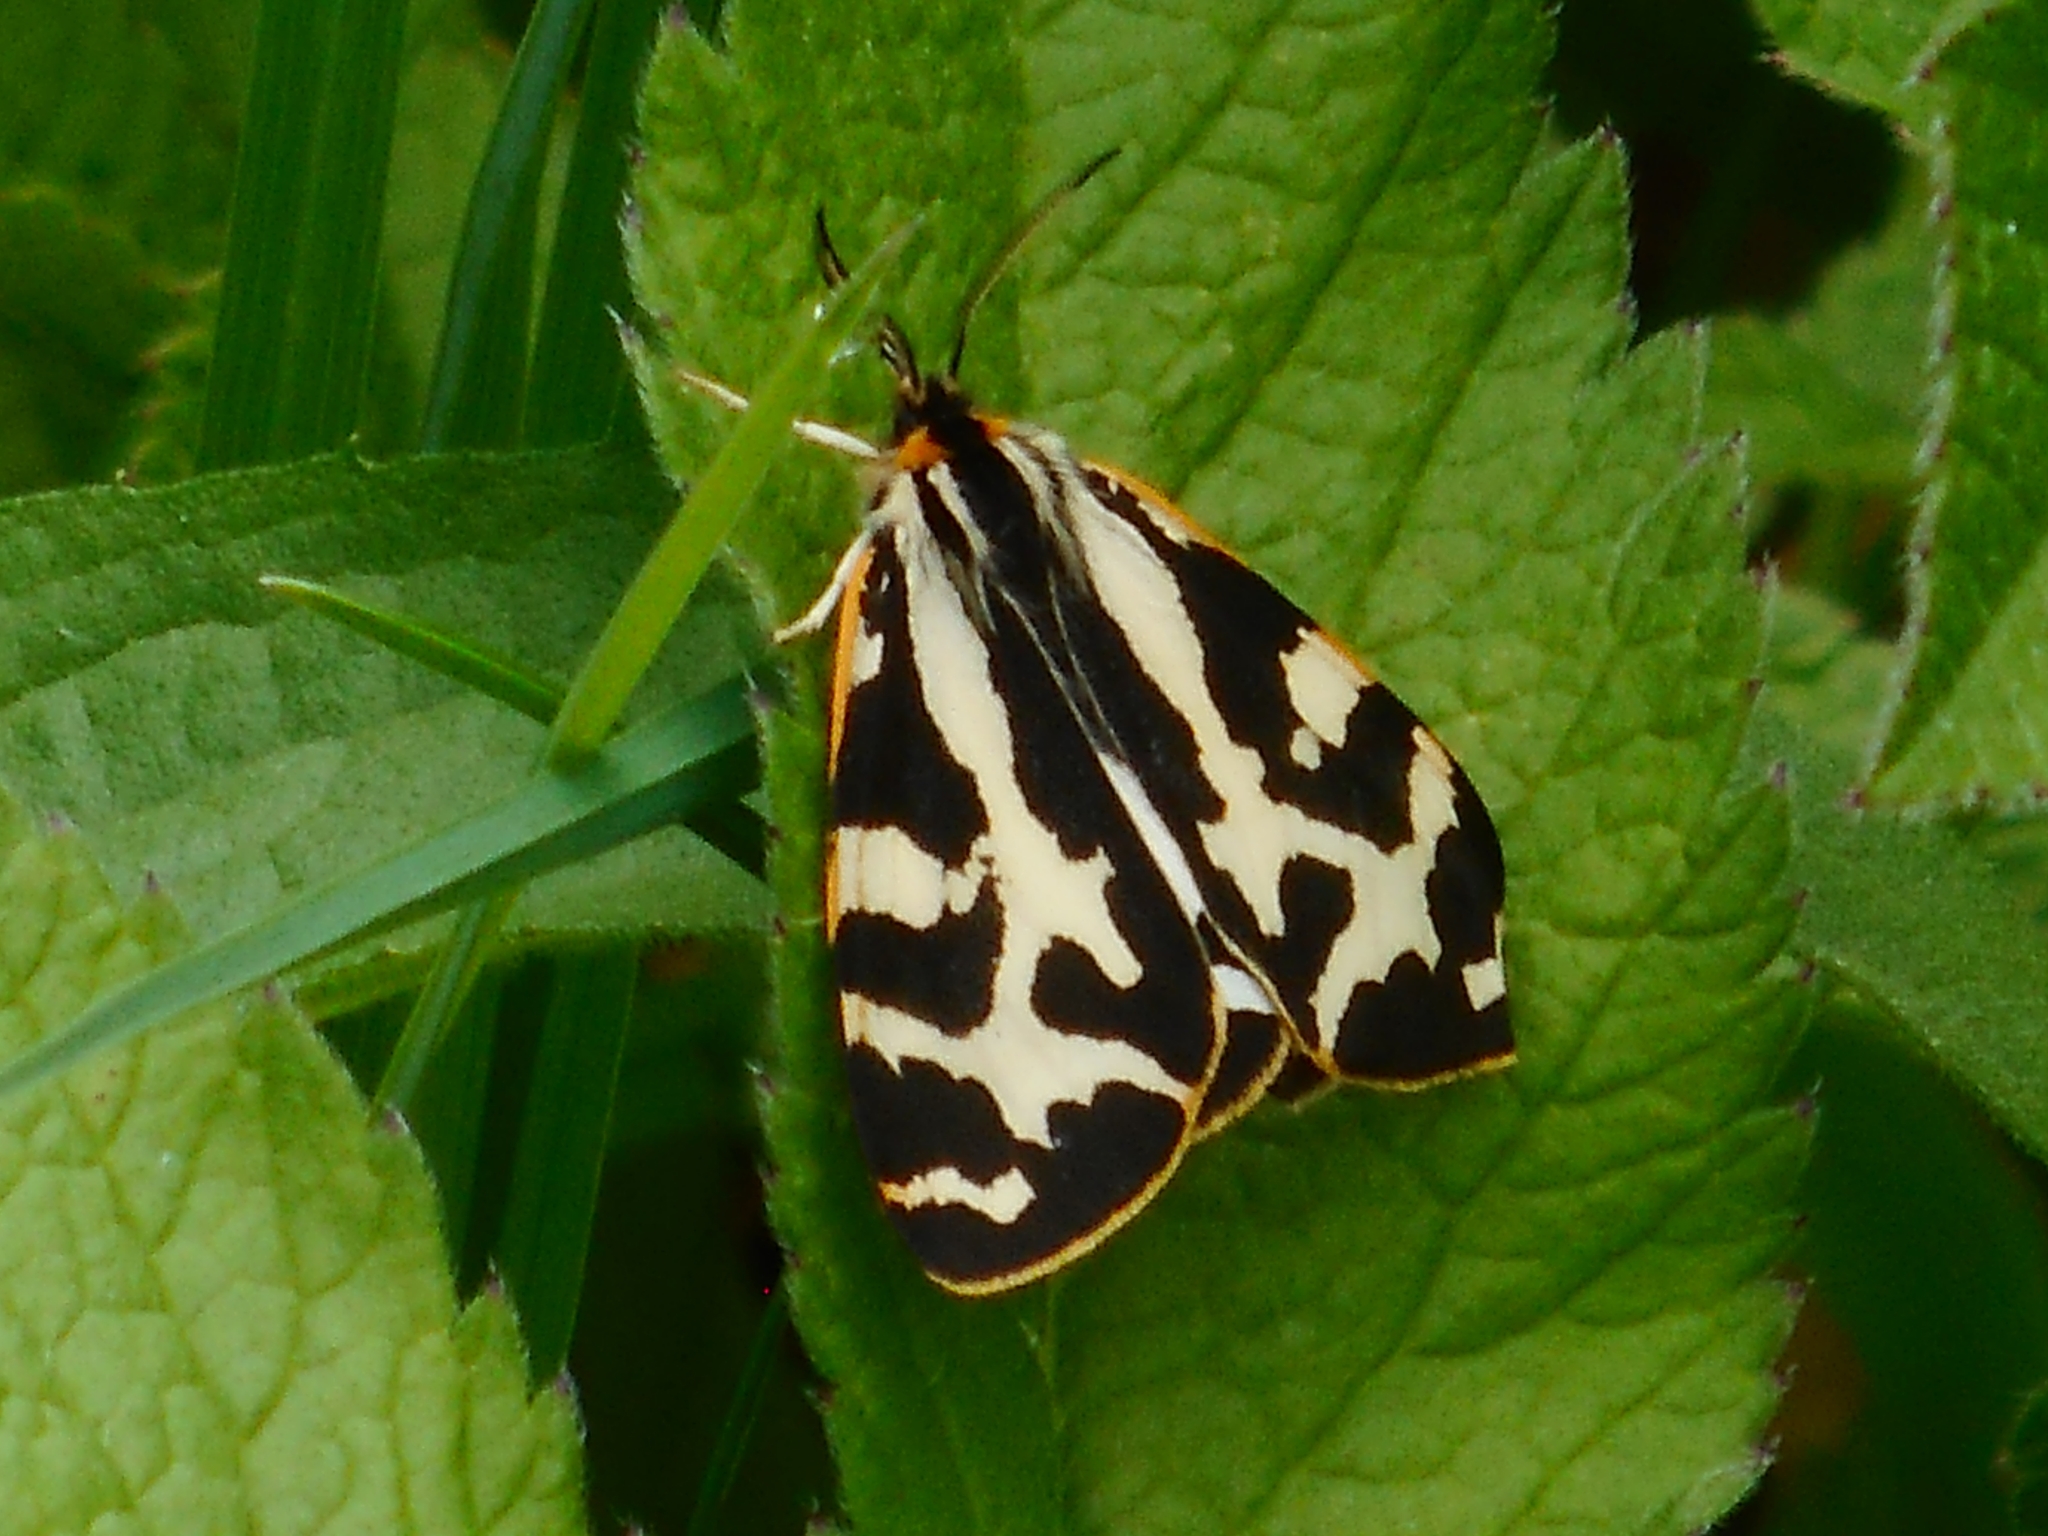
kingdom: Animalia
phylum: Arthropoda
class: Insecta
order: Lepidoptera
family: Erebidae
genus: Parasemia
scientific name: Parasemia plantaginis
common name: Wood tiger
